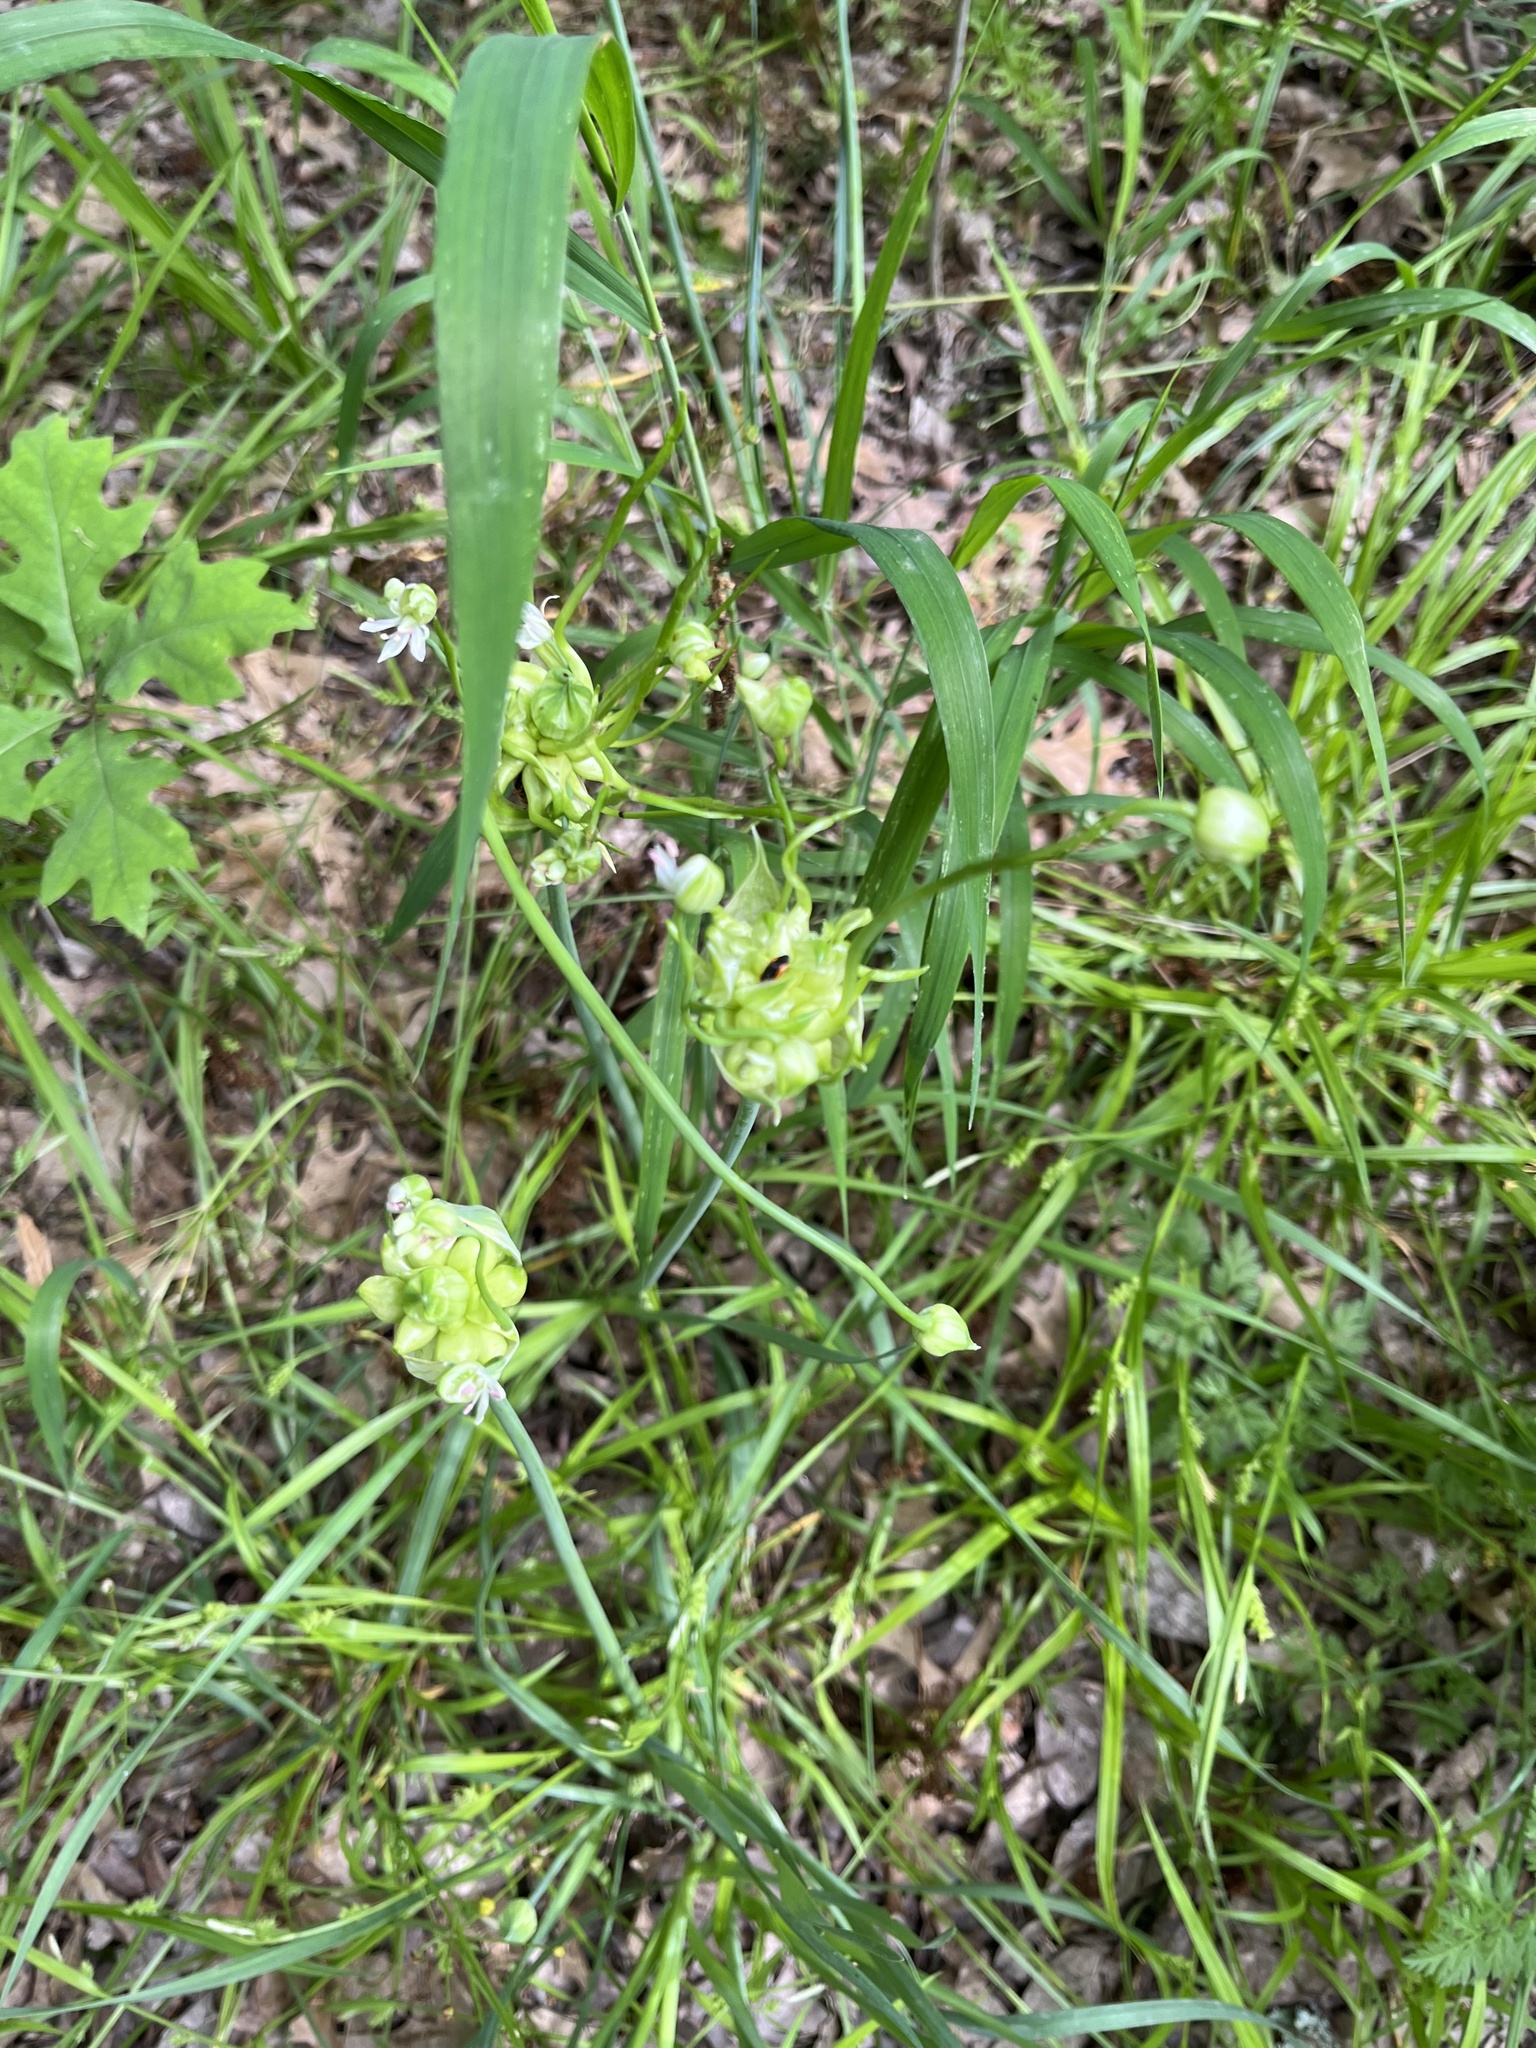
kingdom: Plantae
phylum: Tracheophyta
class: Liliopsida
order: Asparagales
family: Amaryllidaceae
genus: Allium
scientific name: Allium canadense
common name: Meadow garlic
